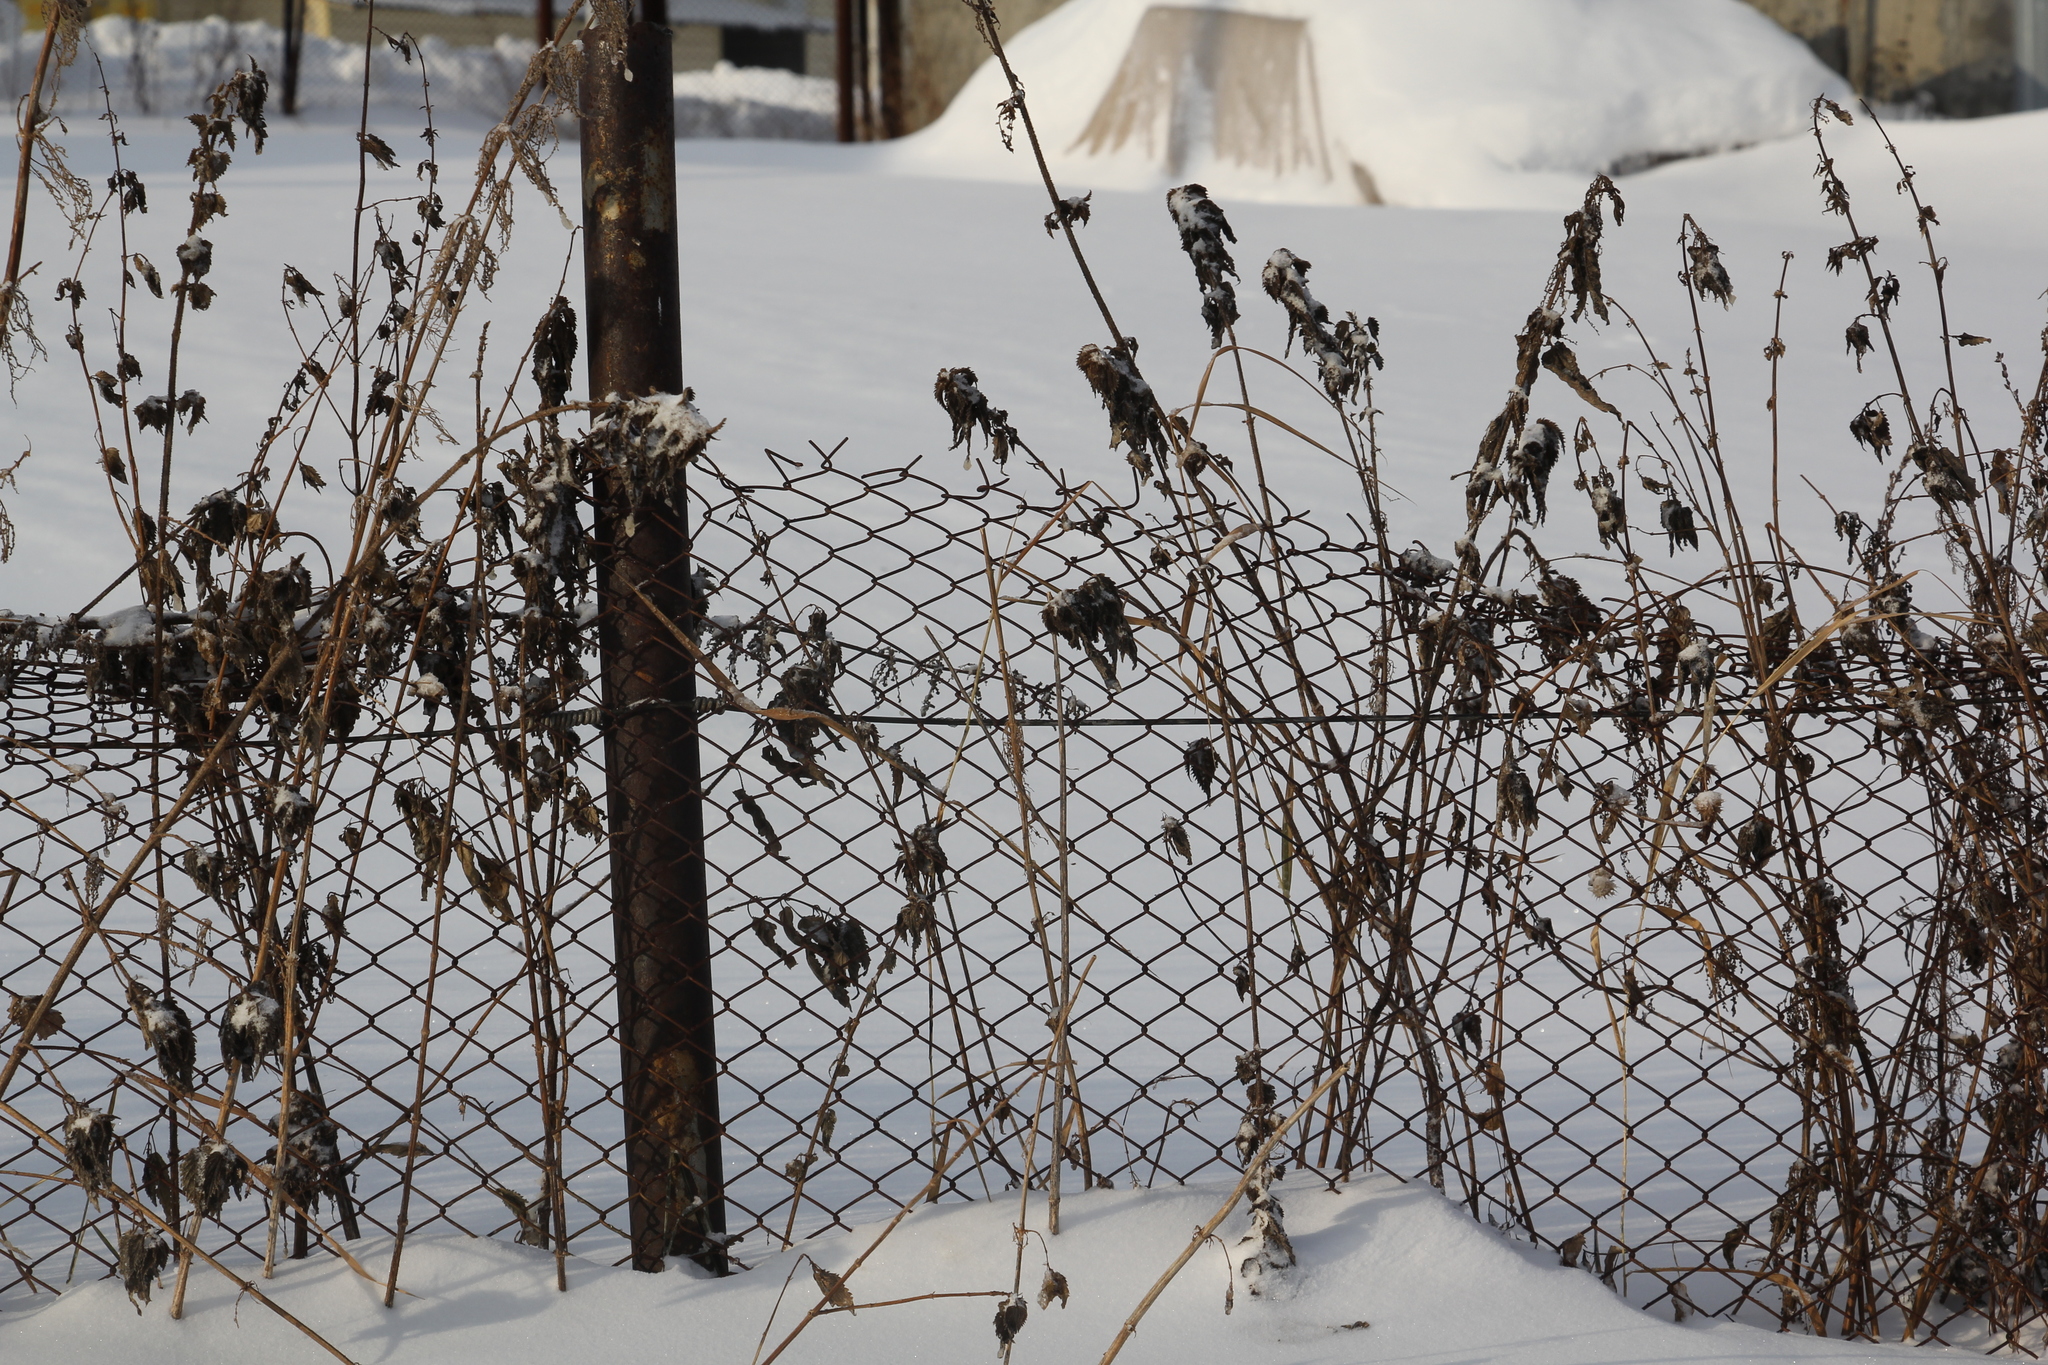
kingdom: Plantae
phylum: Tracheophyta
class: Magnoliopsida
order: Rosales
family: Urticaceae
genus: Urtica
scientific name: Urtica dioica
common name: Common nettle
